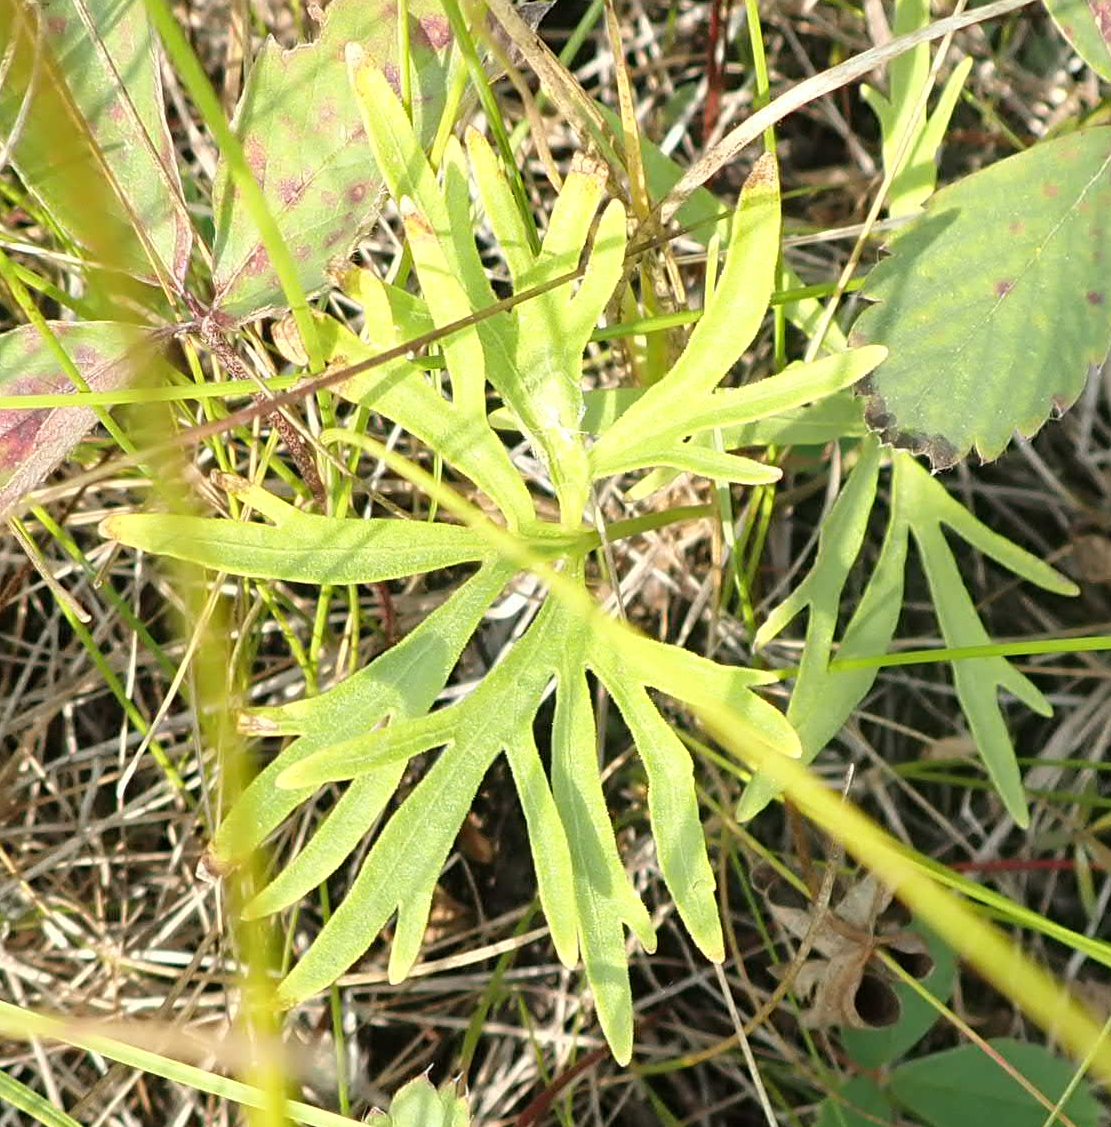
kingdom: Plantae
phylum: Tracheophyta
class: Magnoliopsida
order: Ranunculales
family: Ranunculaceae
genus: Pulsatilla
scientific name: Pulsatilla nuttalliana
